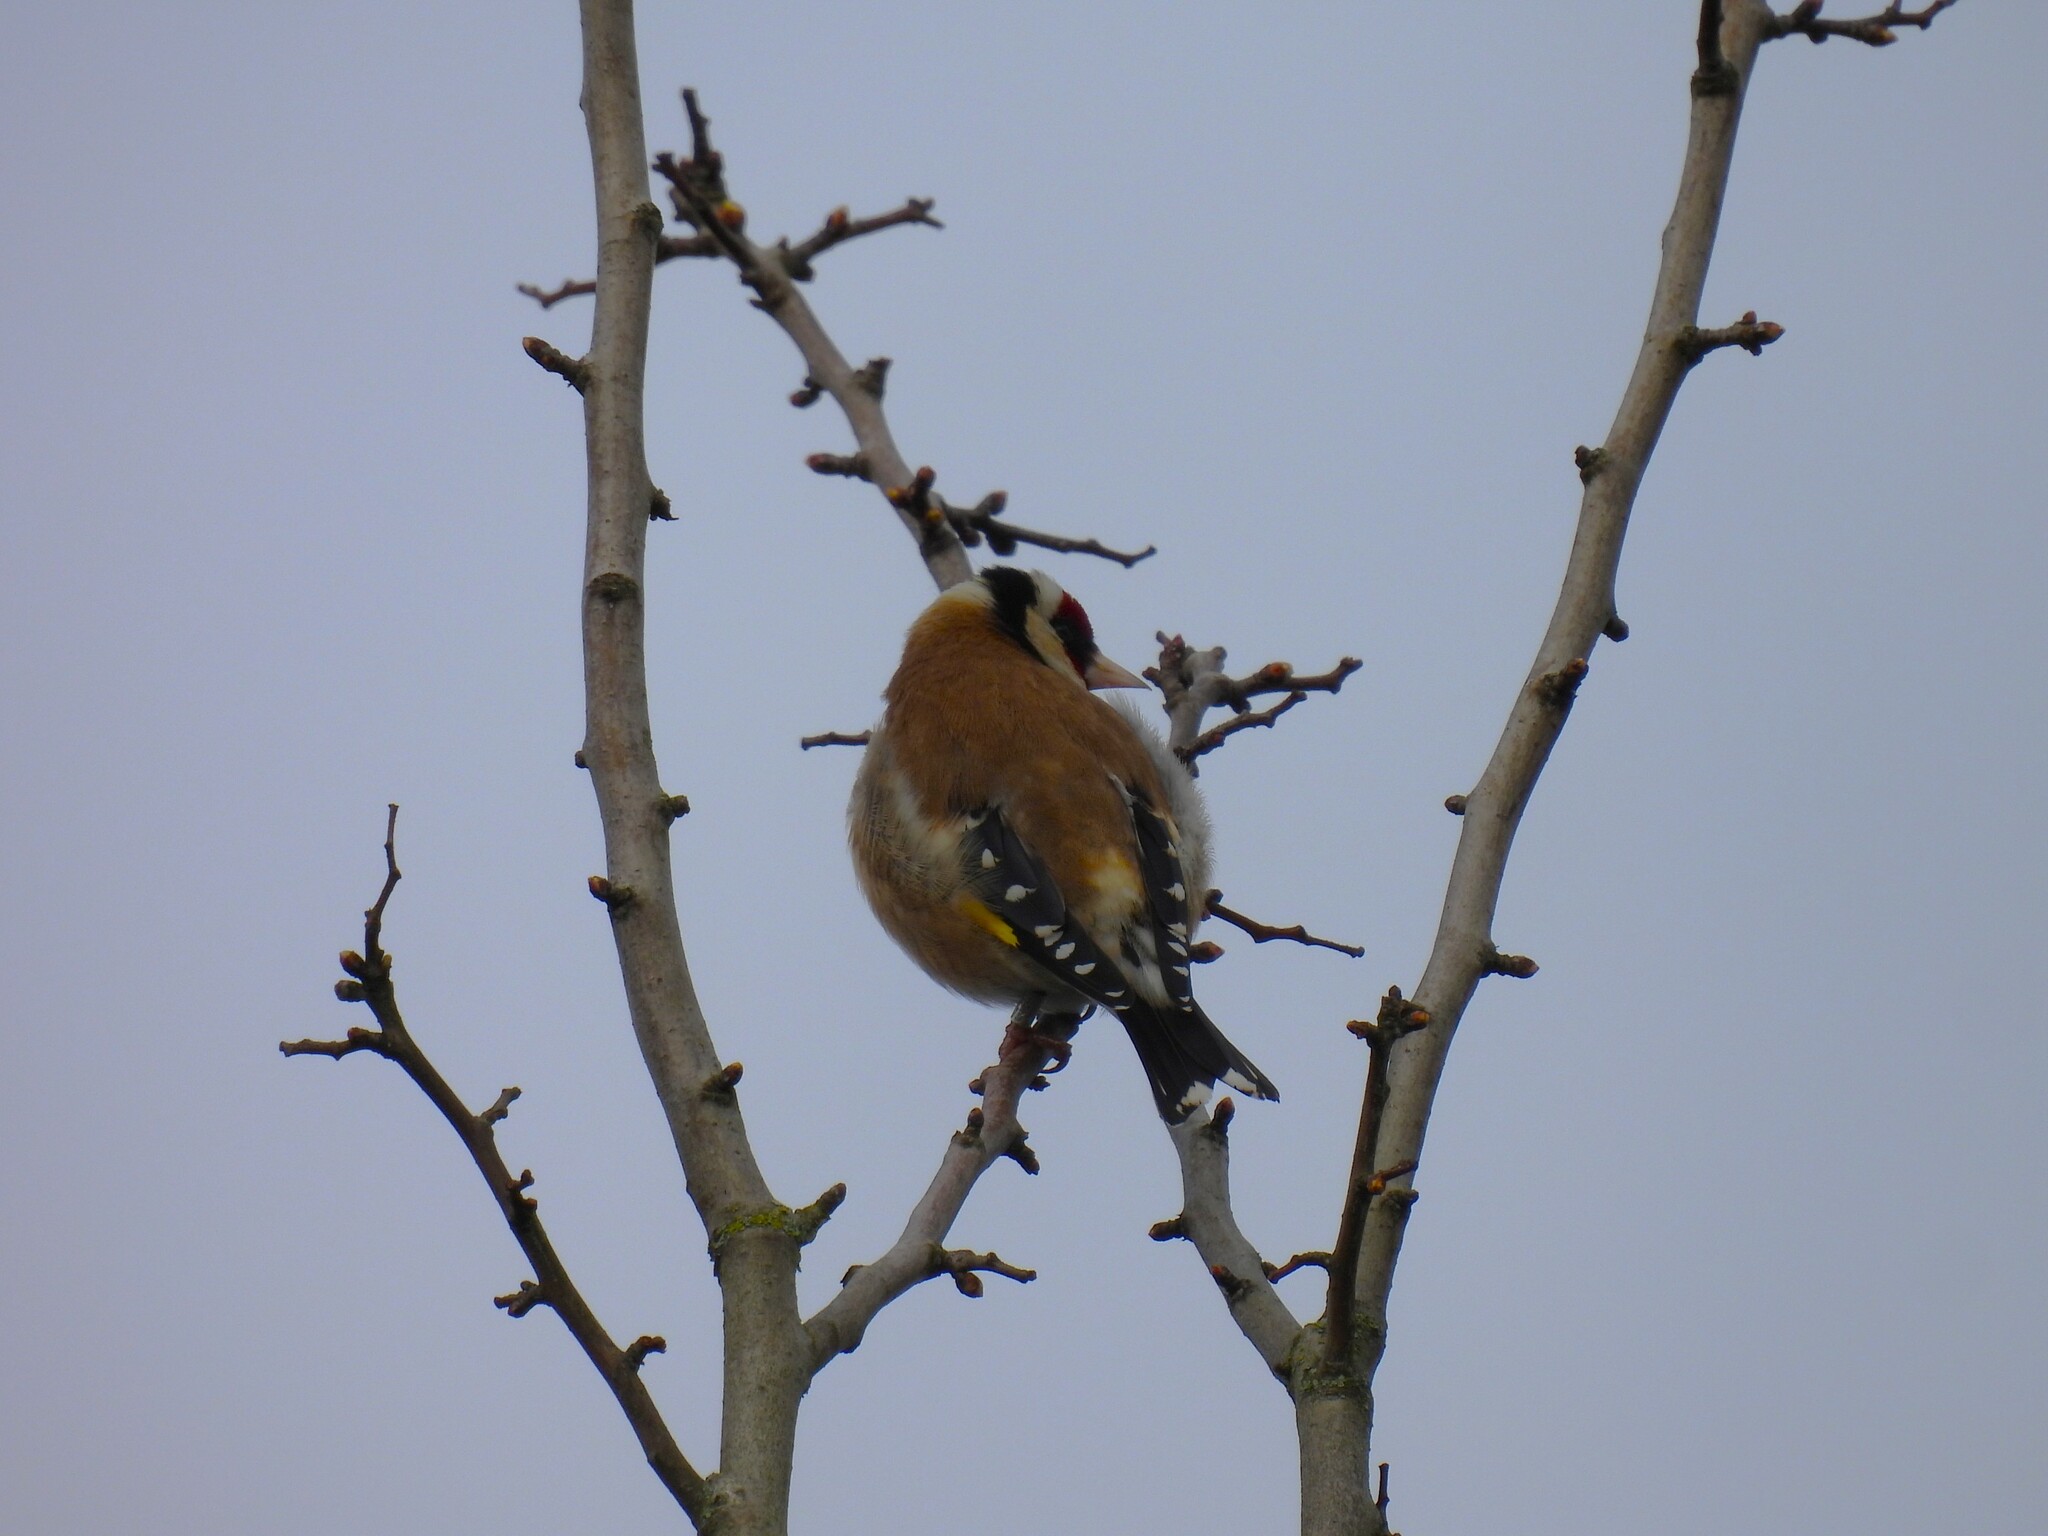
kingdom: Animalia
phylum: Chordata
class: Aves
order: Passeriformes
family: Fringillidae
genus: Carduelis
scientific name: Carduelis carduelis
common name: European goldfinch
